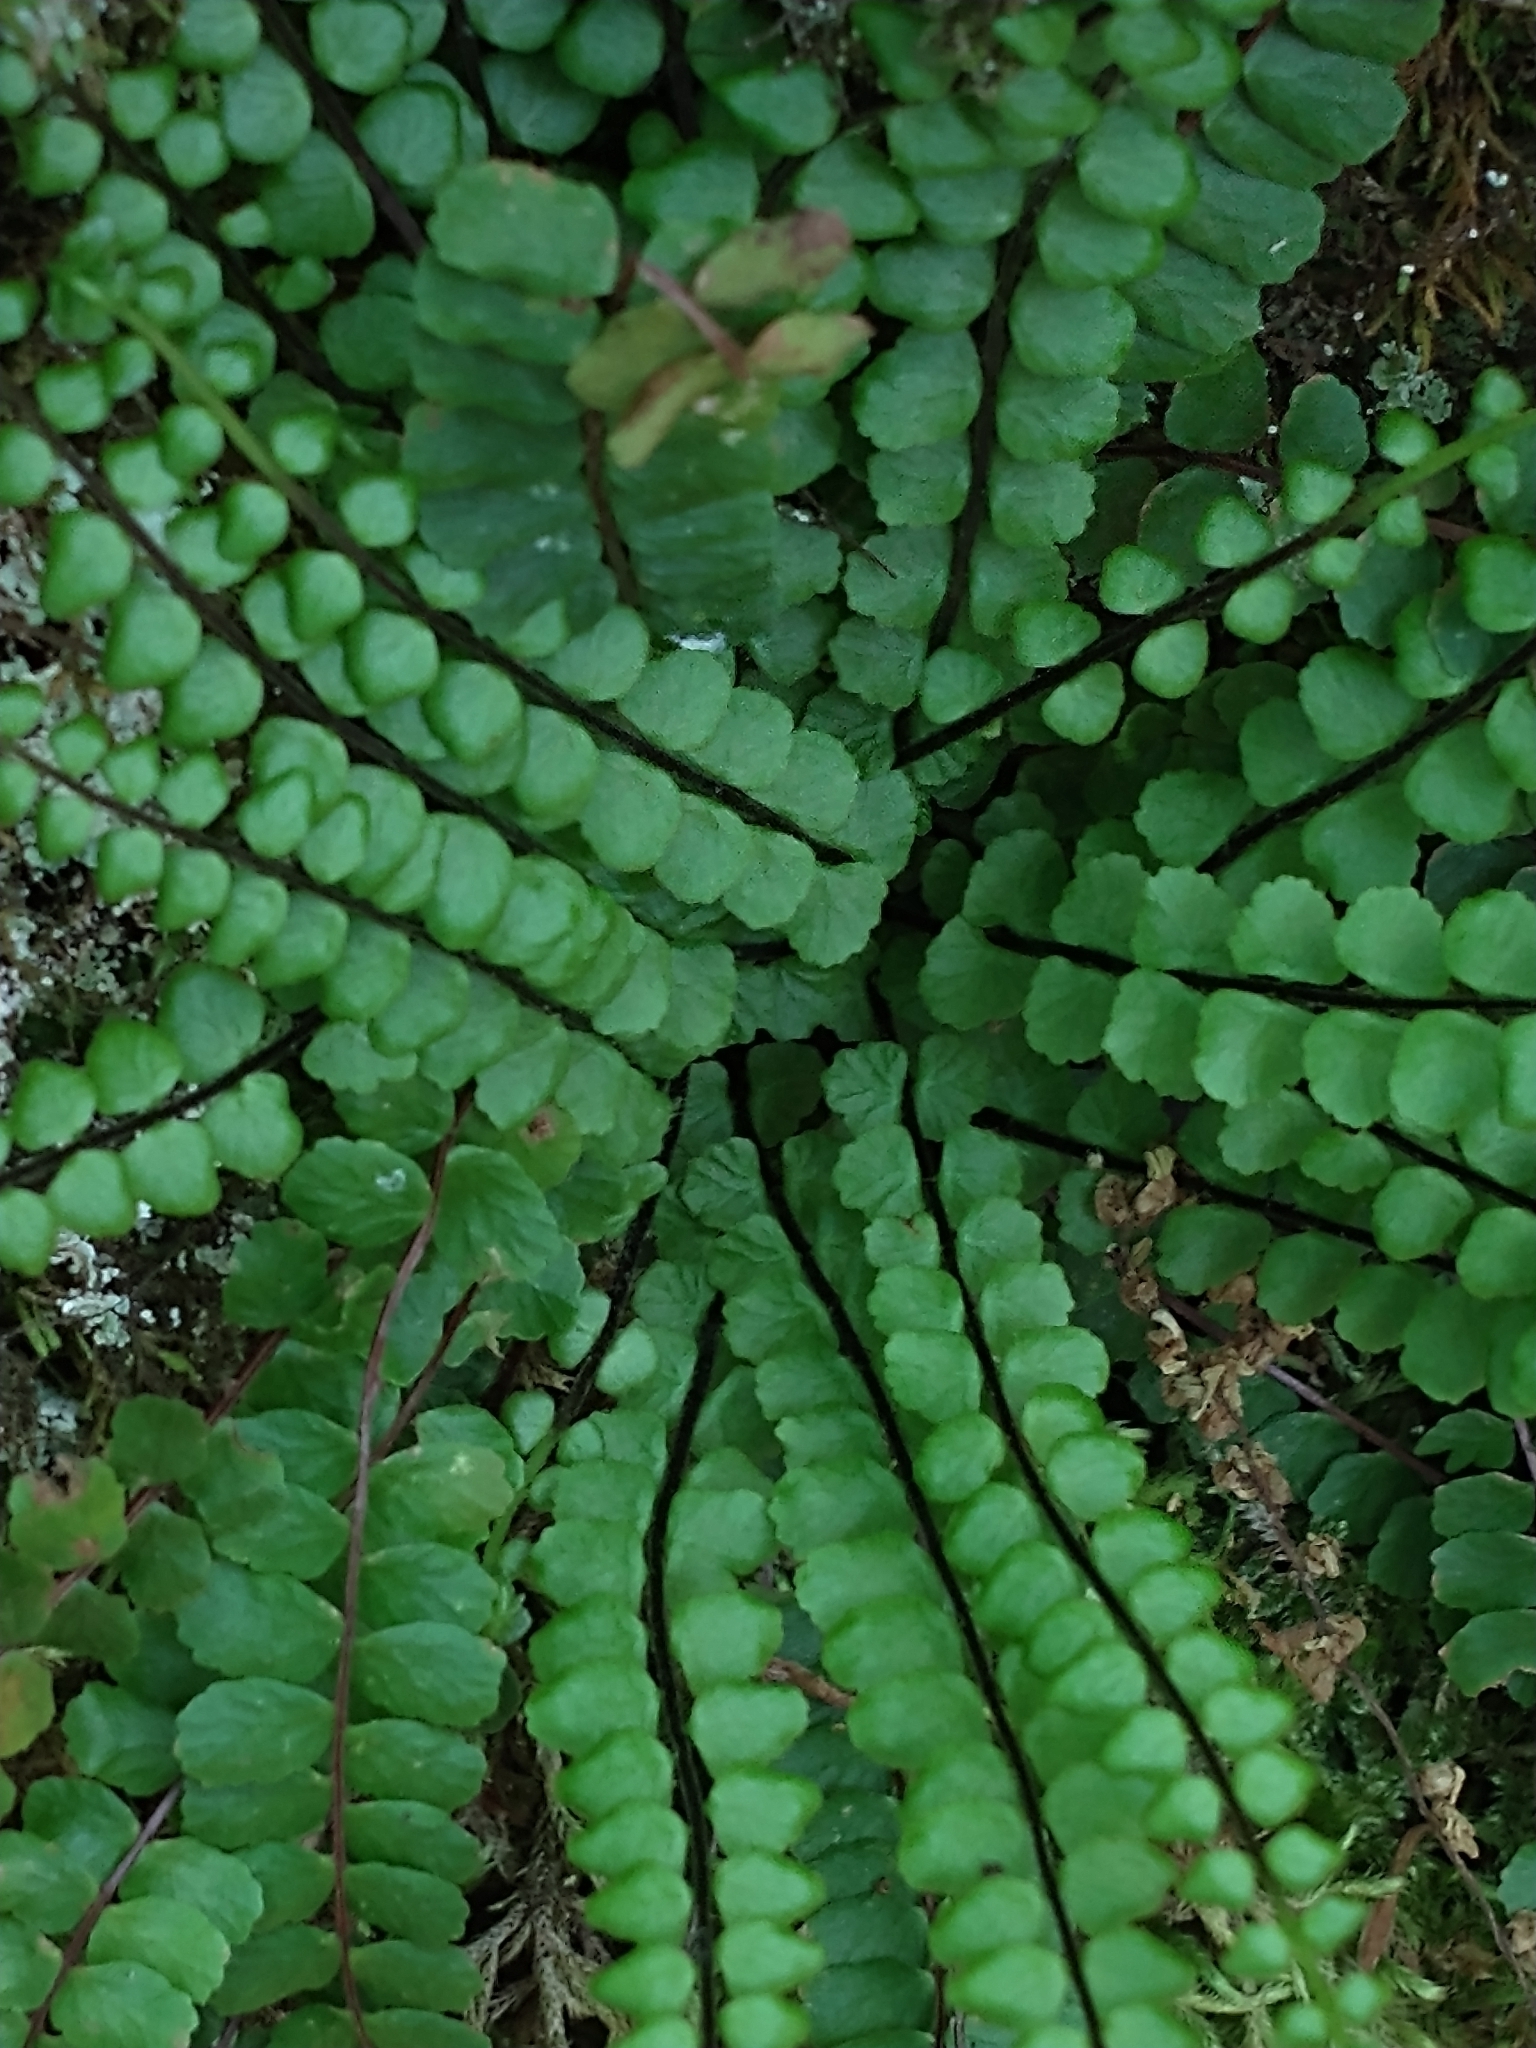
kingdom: Plantae
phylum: Tracheophyta
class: Polypodiopsida
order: Polypodiales
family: Aspleniaceae
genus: Asplenium
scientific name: Asplenium trichomanes
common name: Maidenhair spleenwort
